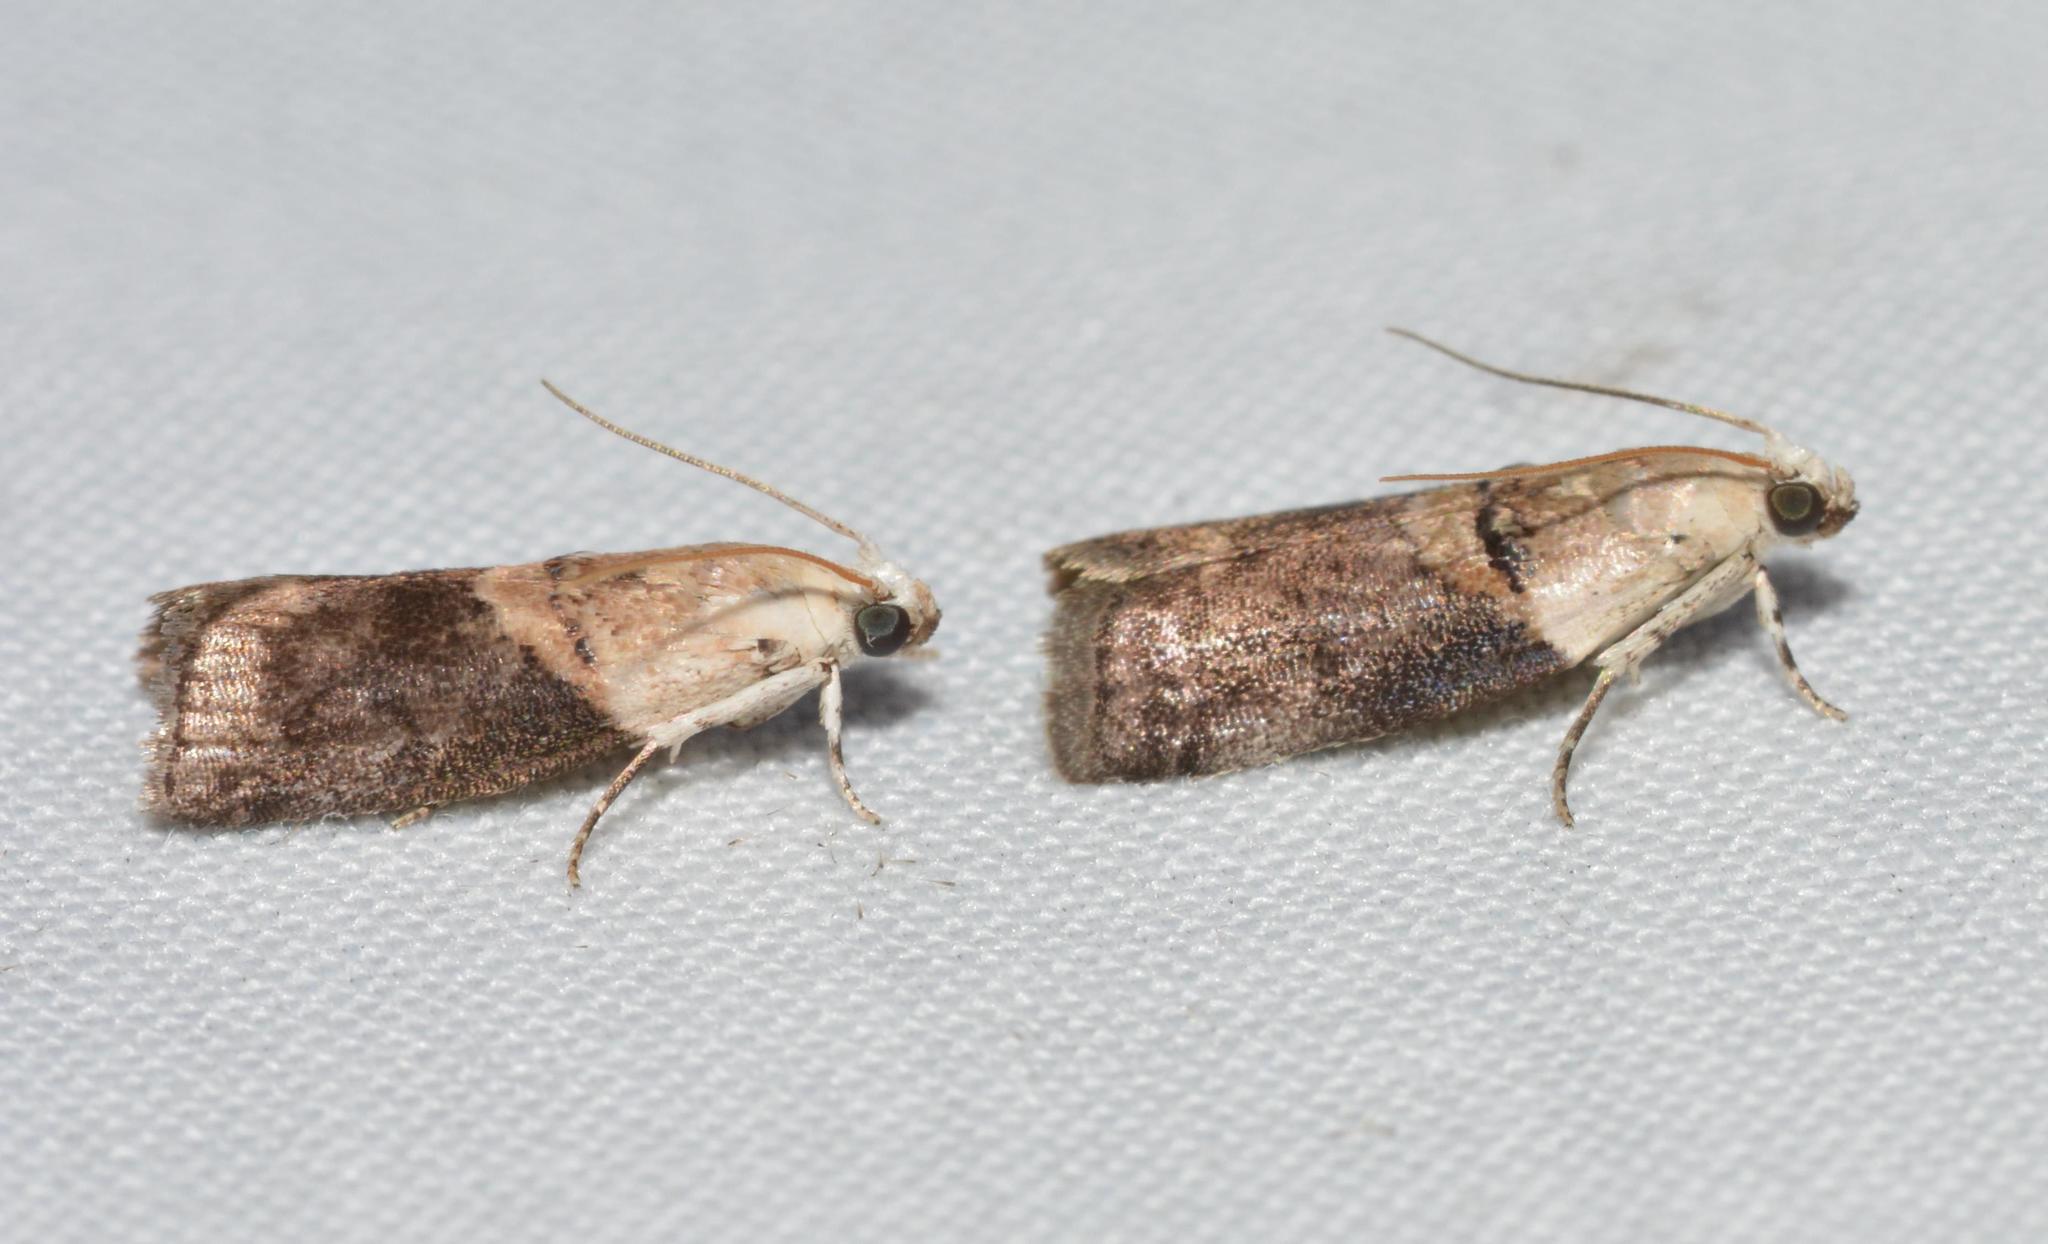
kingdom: Animalia
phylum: Arthropoda
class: Insecta
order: Lepidoptera
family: Pyralidae
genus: Acrobasis
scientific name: Acrobasis palliolella
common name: Mantled acrobasis moth
